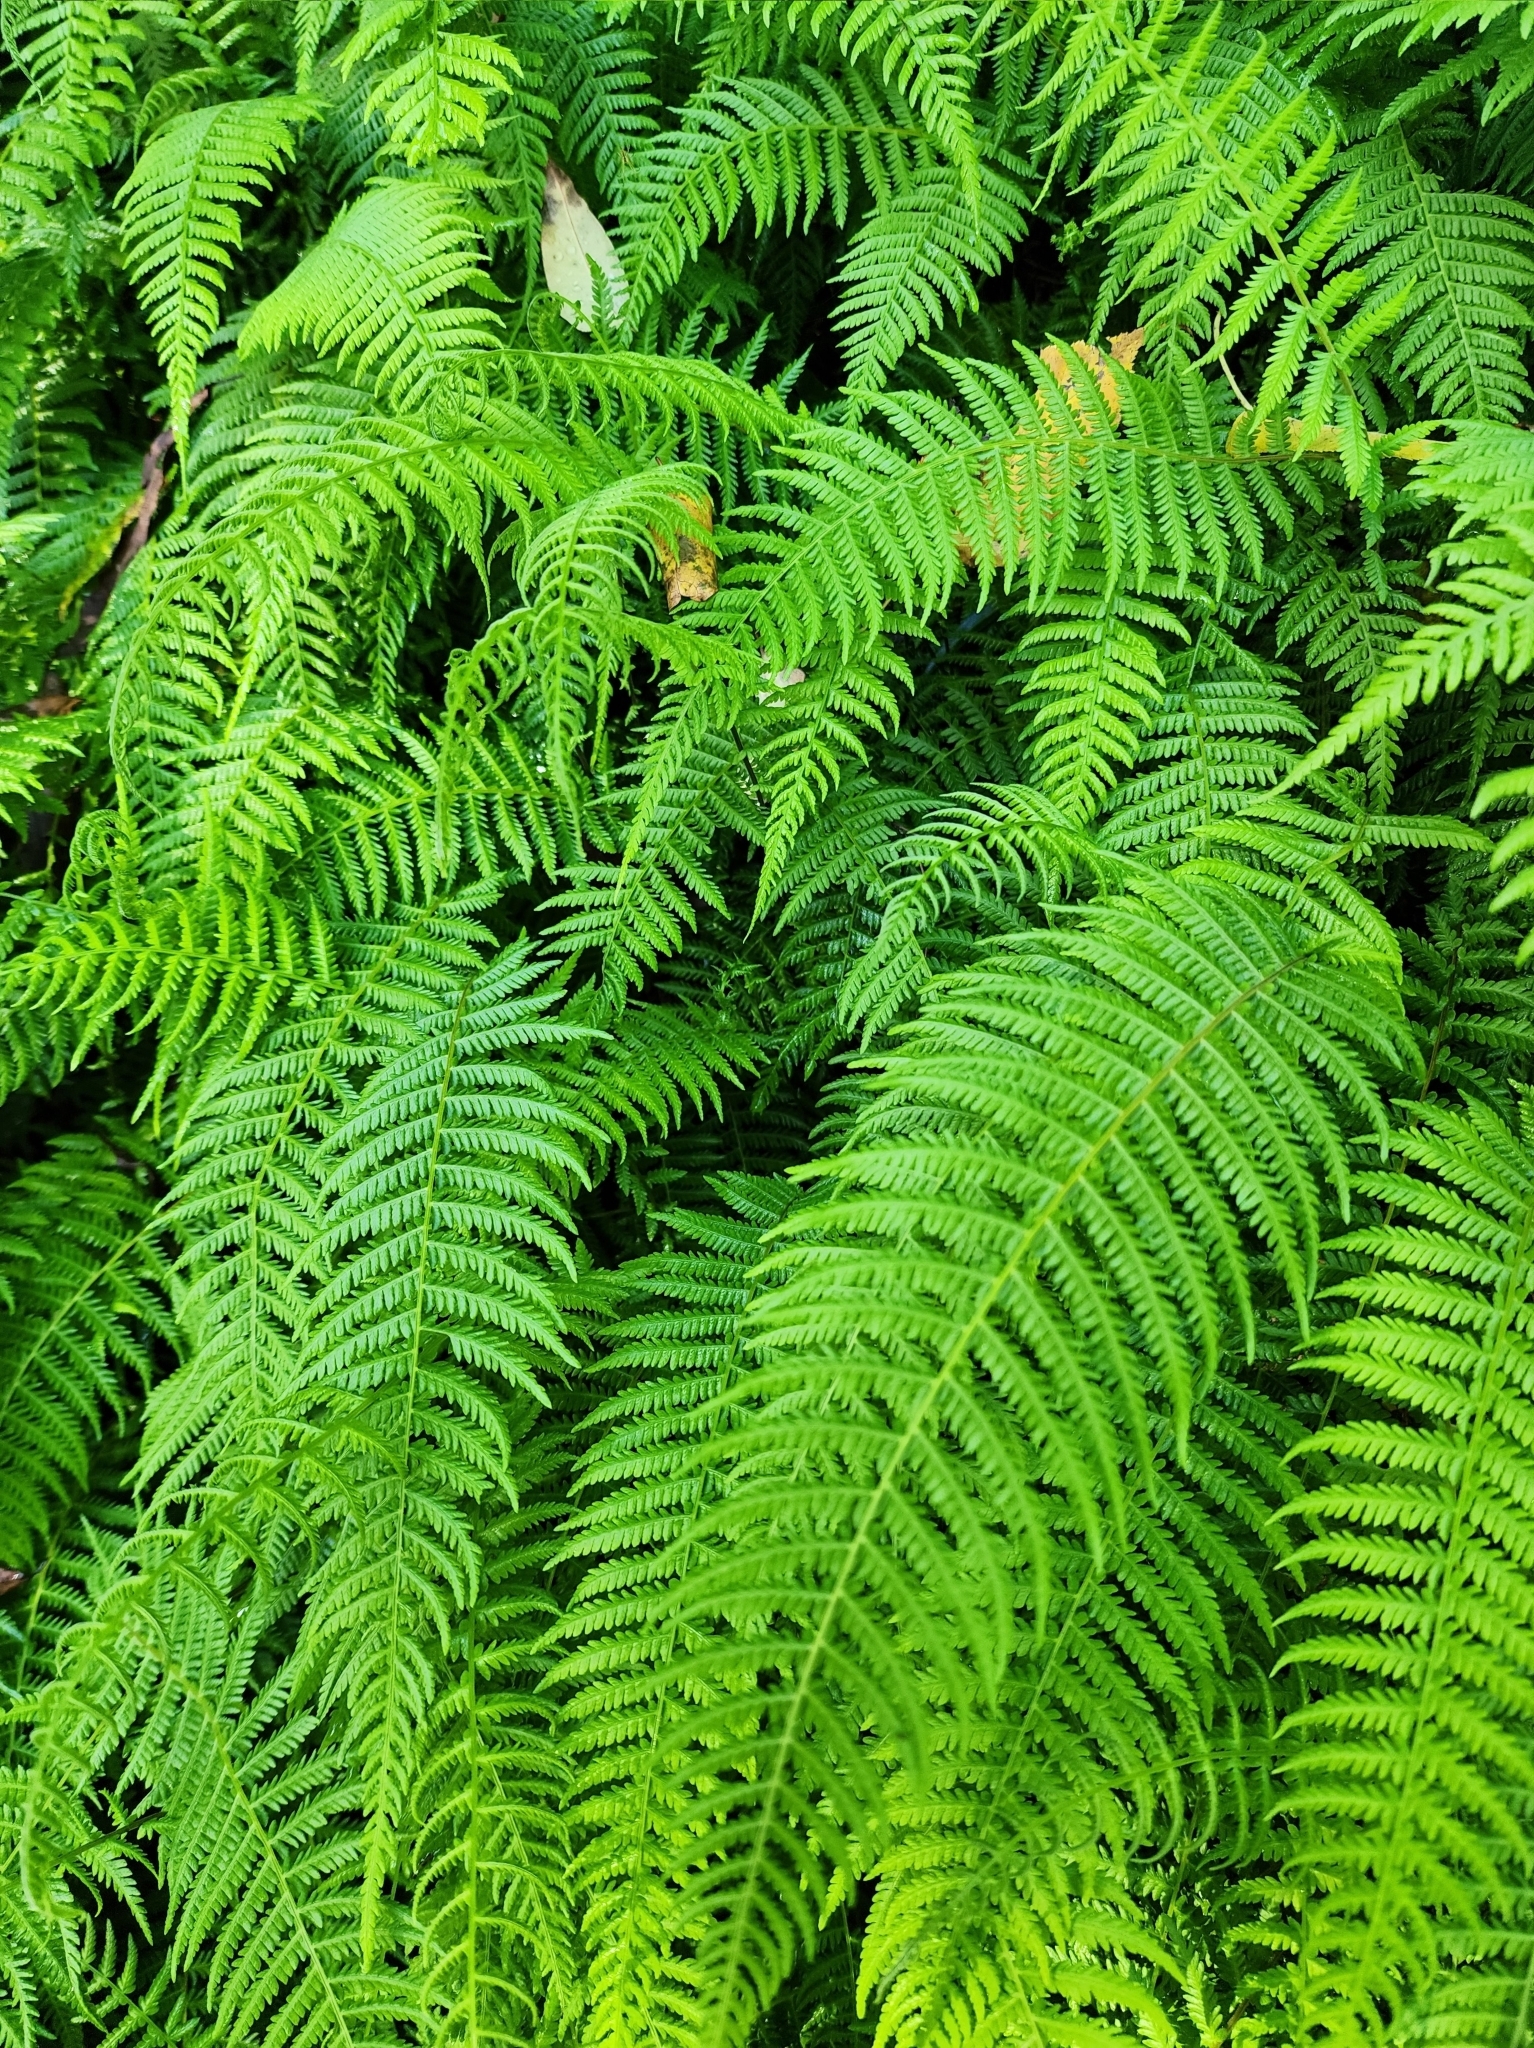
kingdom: Plantae
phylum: Tracheophyta
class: Polypodiopsida
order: Polypodiales
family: Thelypteridaceae
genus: Amauropelta
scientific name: Amauropelta beddomei
